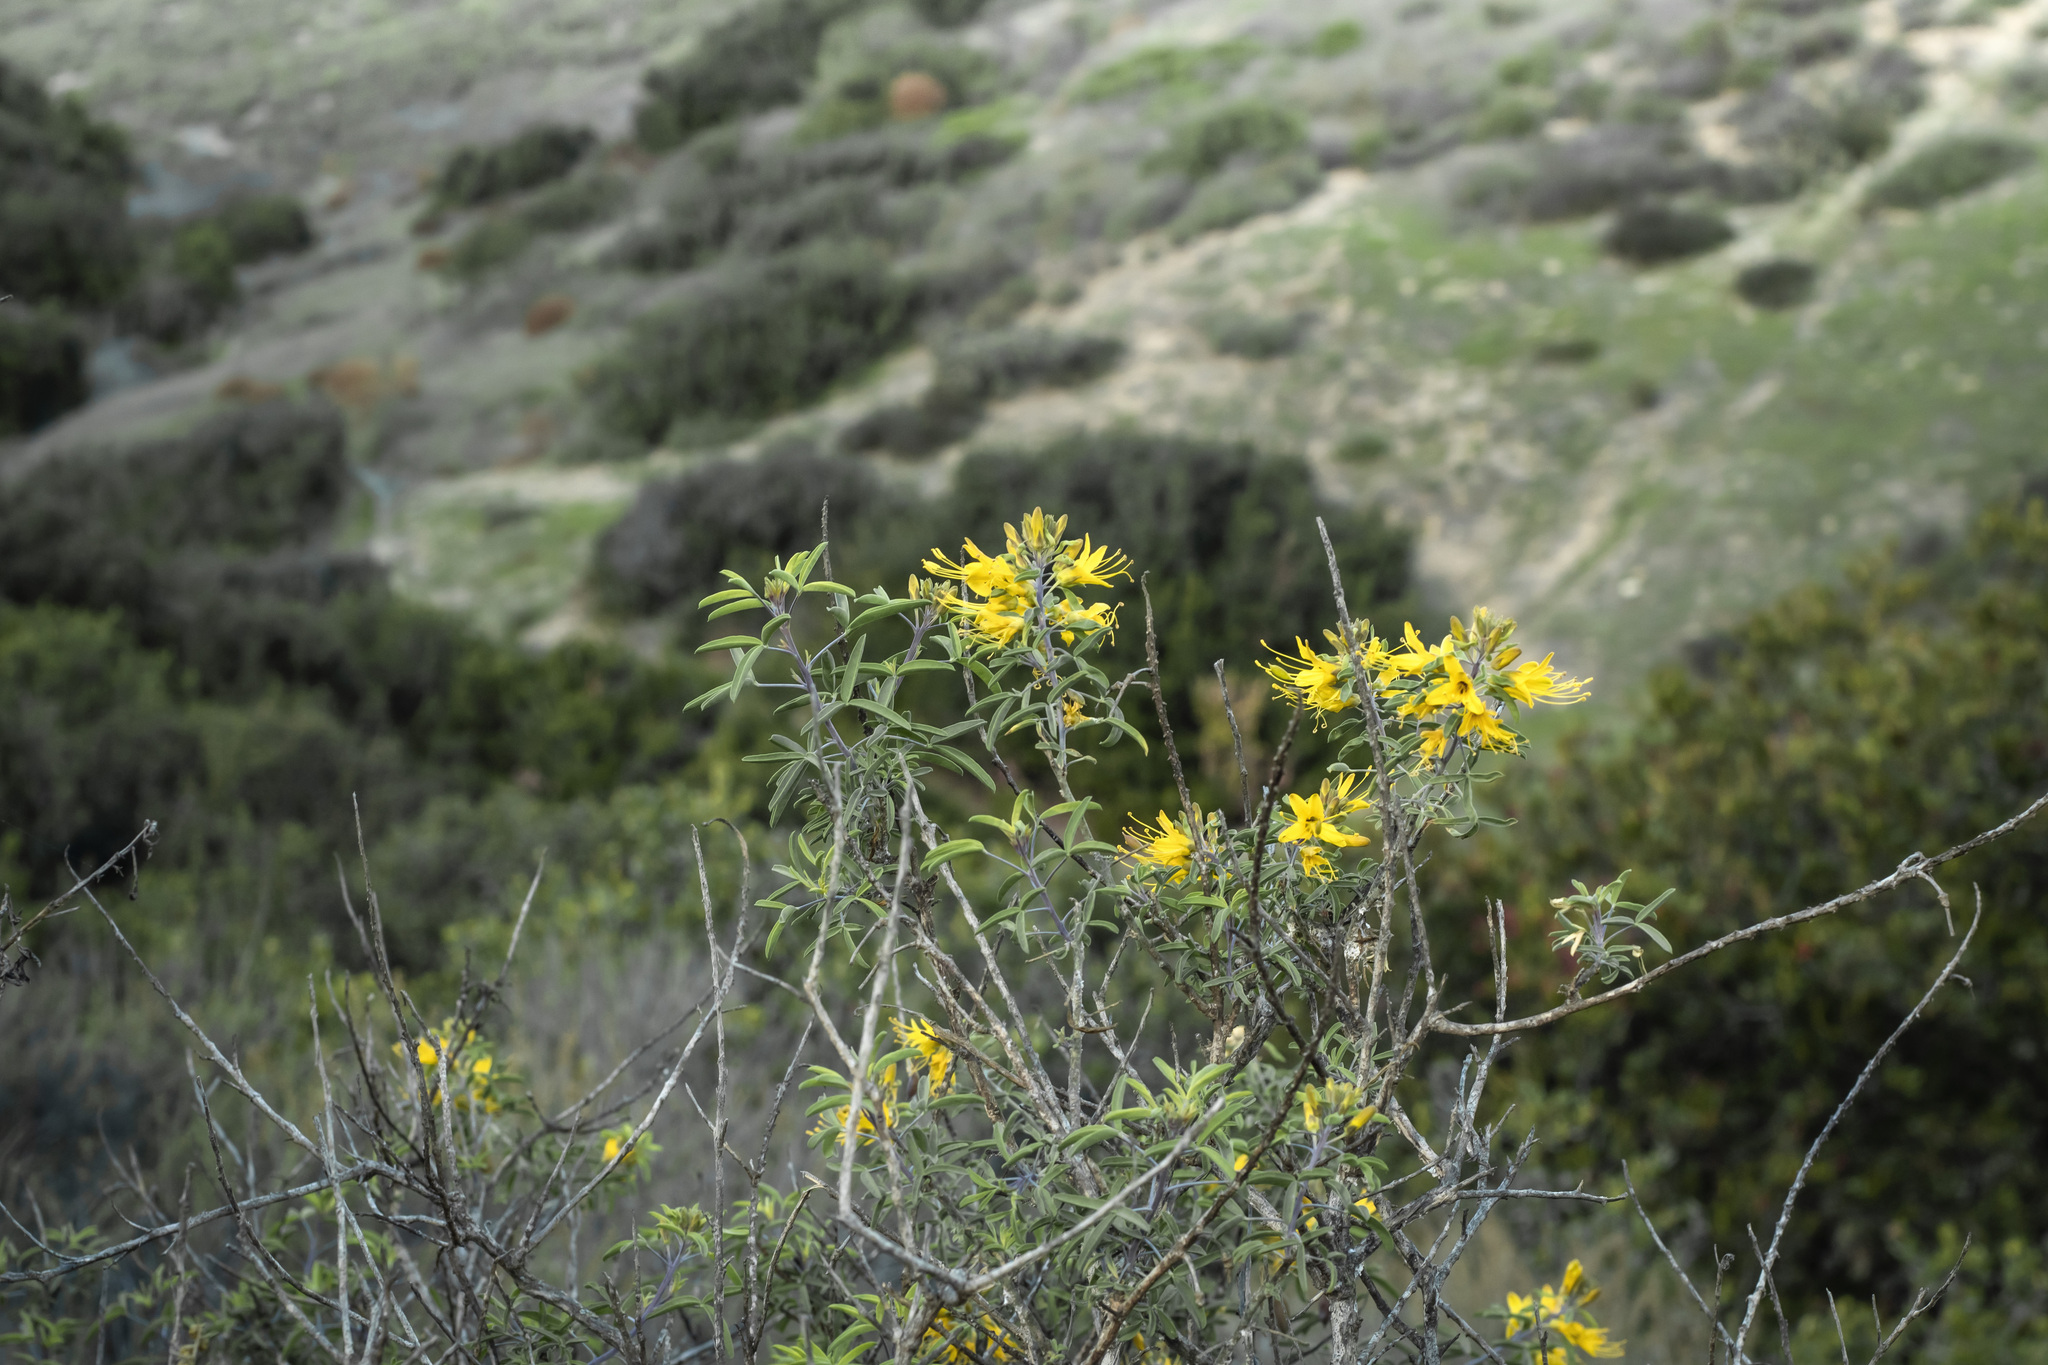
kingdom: Plantae
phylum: Tracheophyta
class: Magnoliopsida
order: Brassicales
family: Cleomaceae
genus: Cleomella
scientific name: Cleomella arborea
